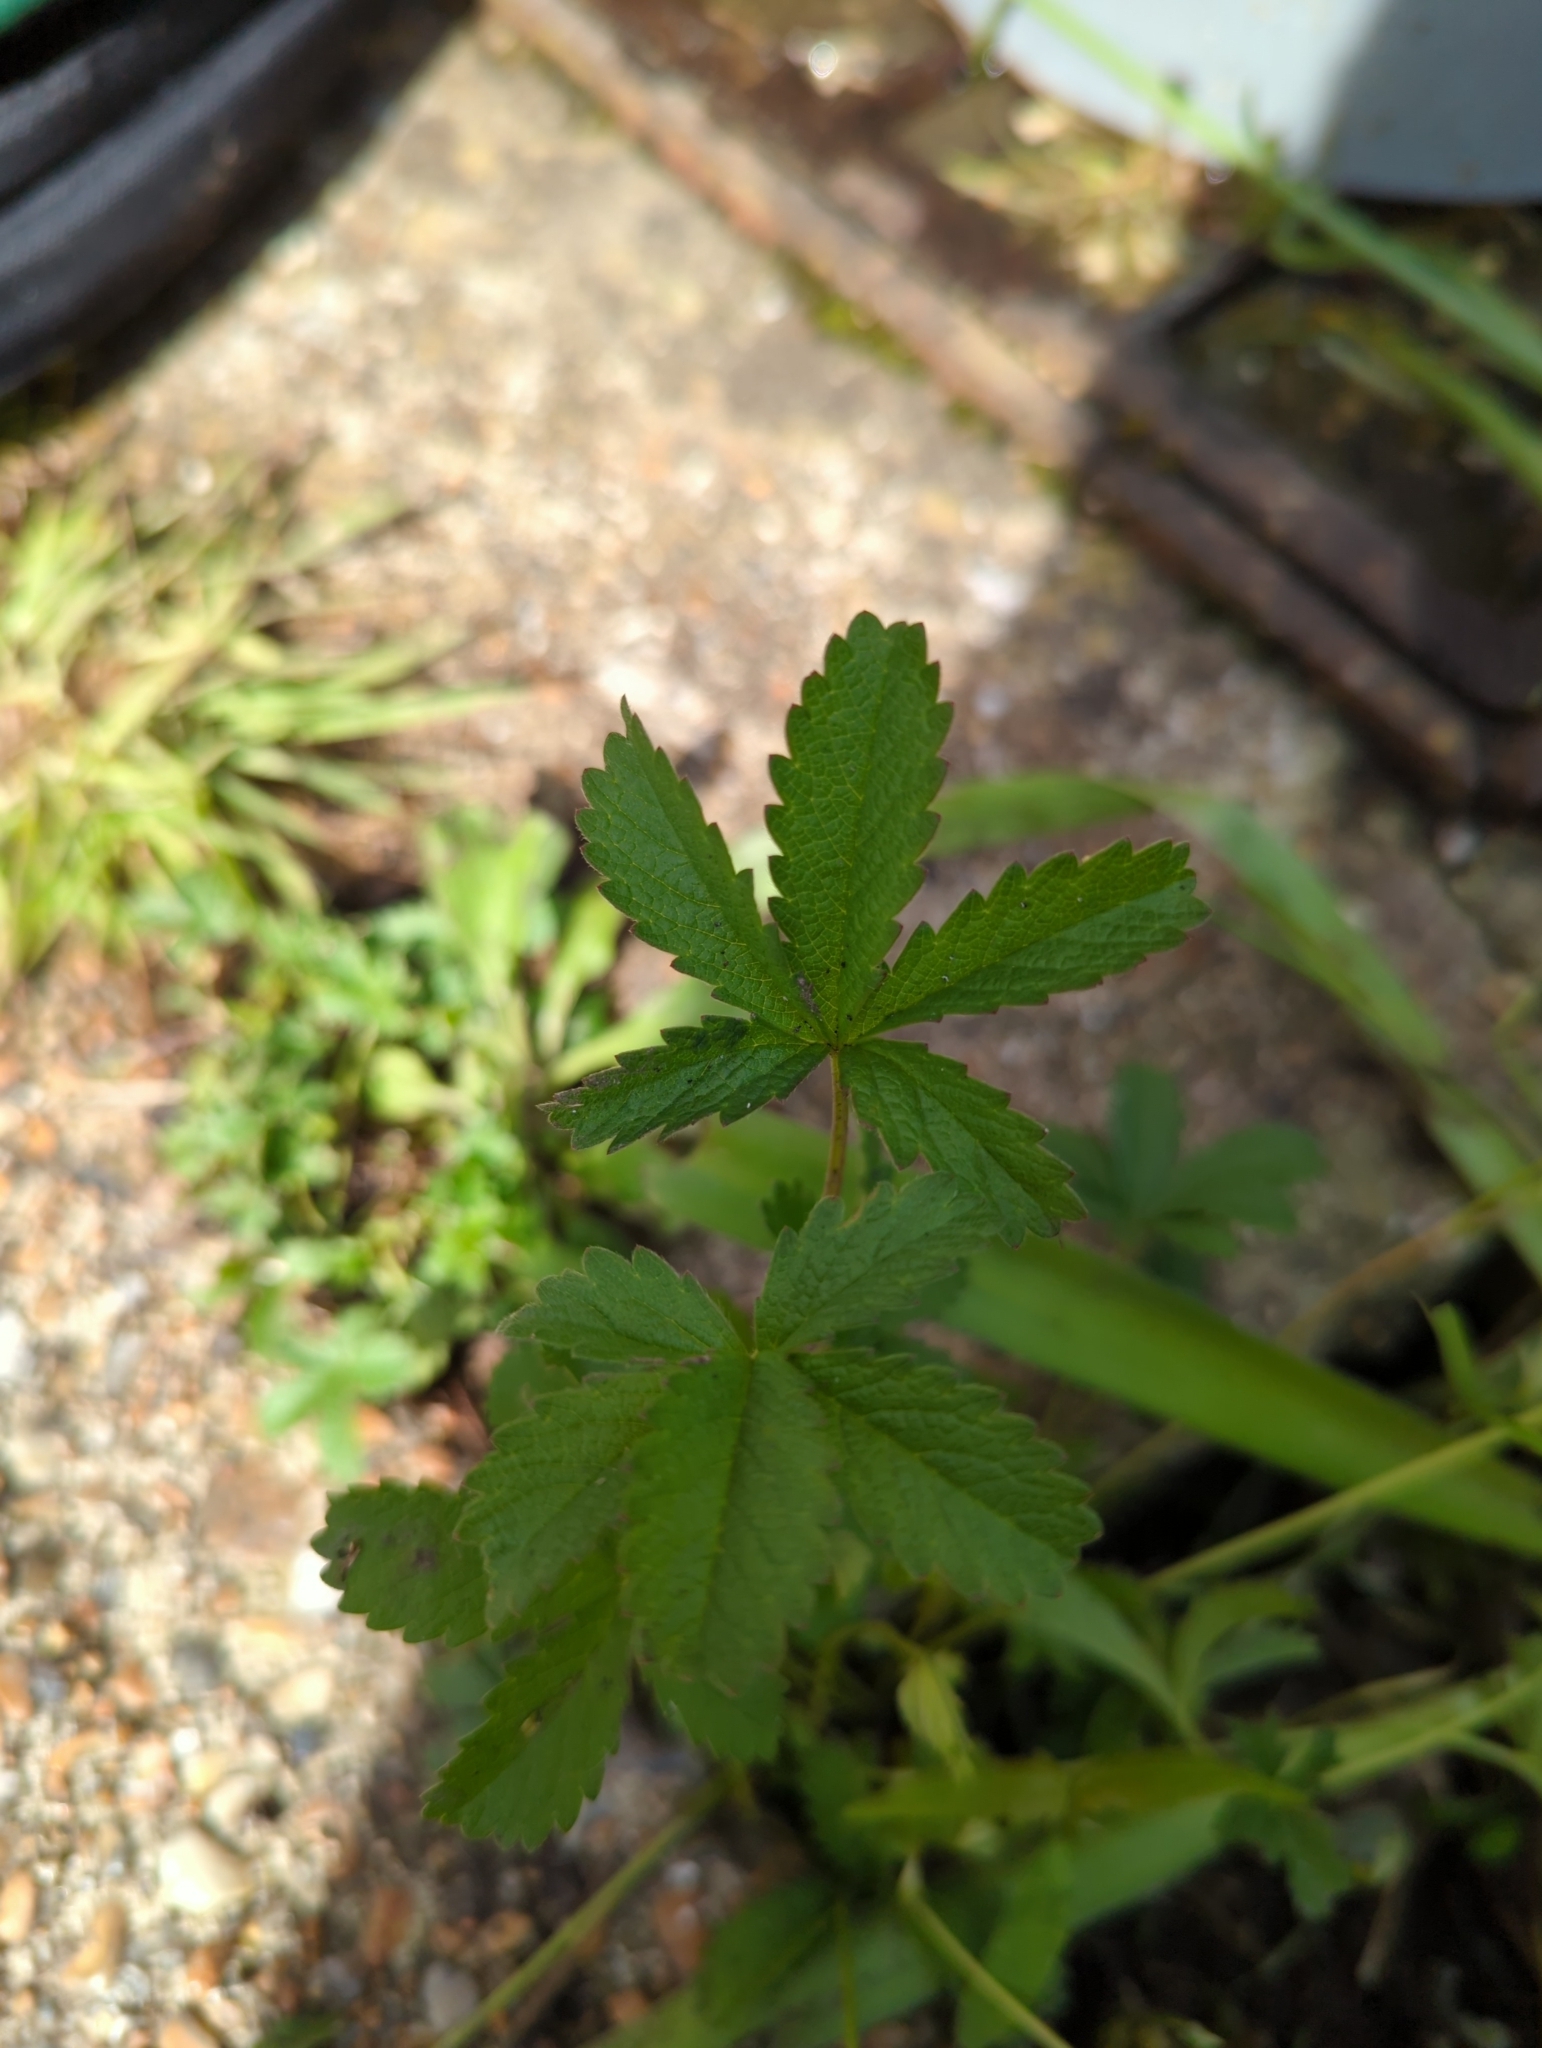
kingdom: Plantae
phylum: Tracheophyta
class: Magnoliopsida
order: Rosales
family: Rosaceae
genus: Potentilla
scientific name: Potentilla reptans
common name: Creeping cinquefoil
